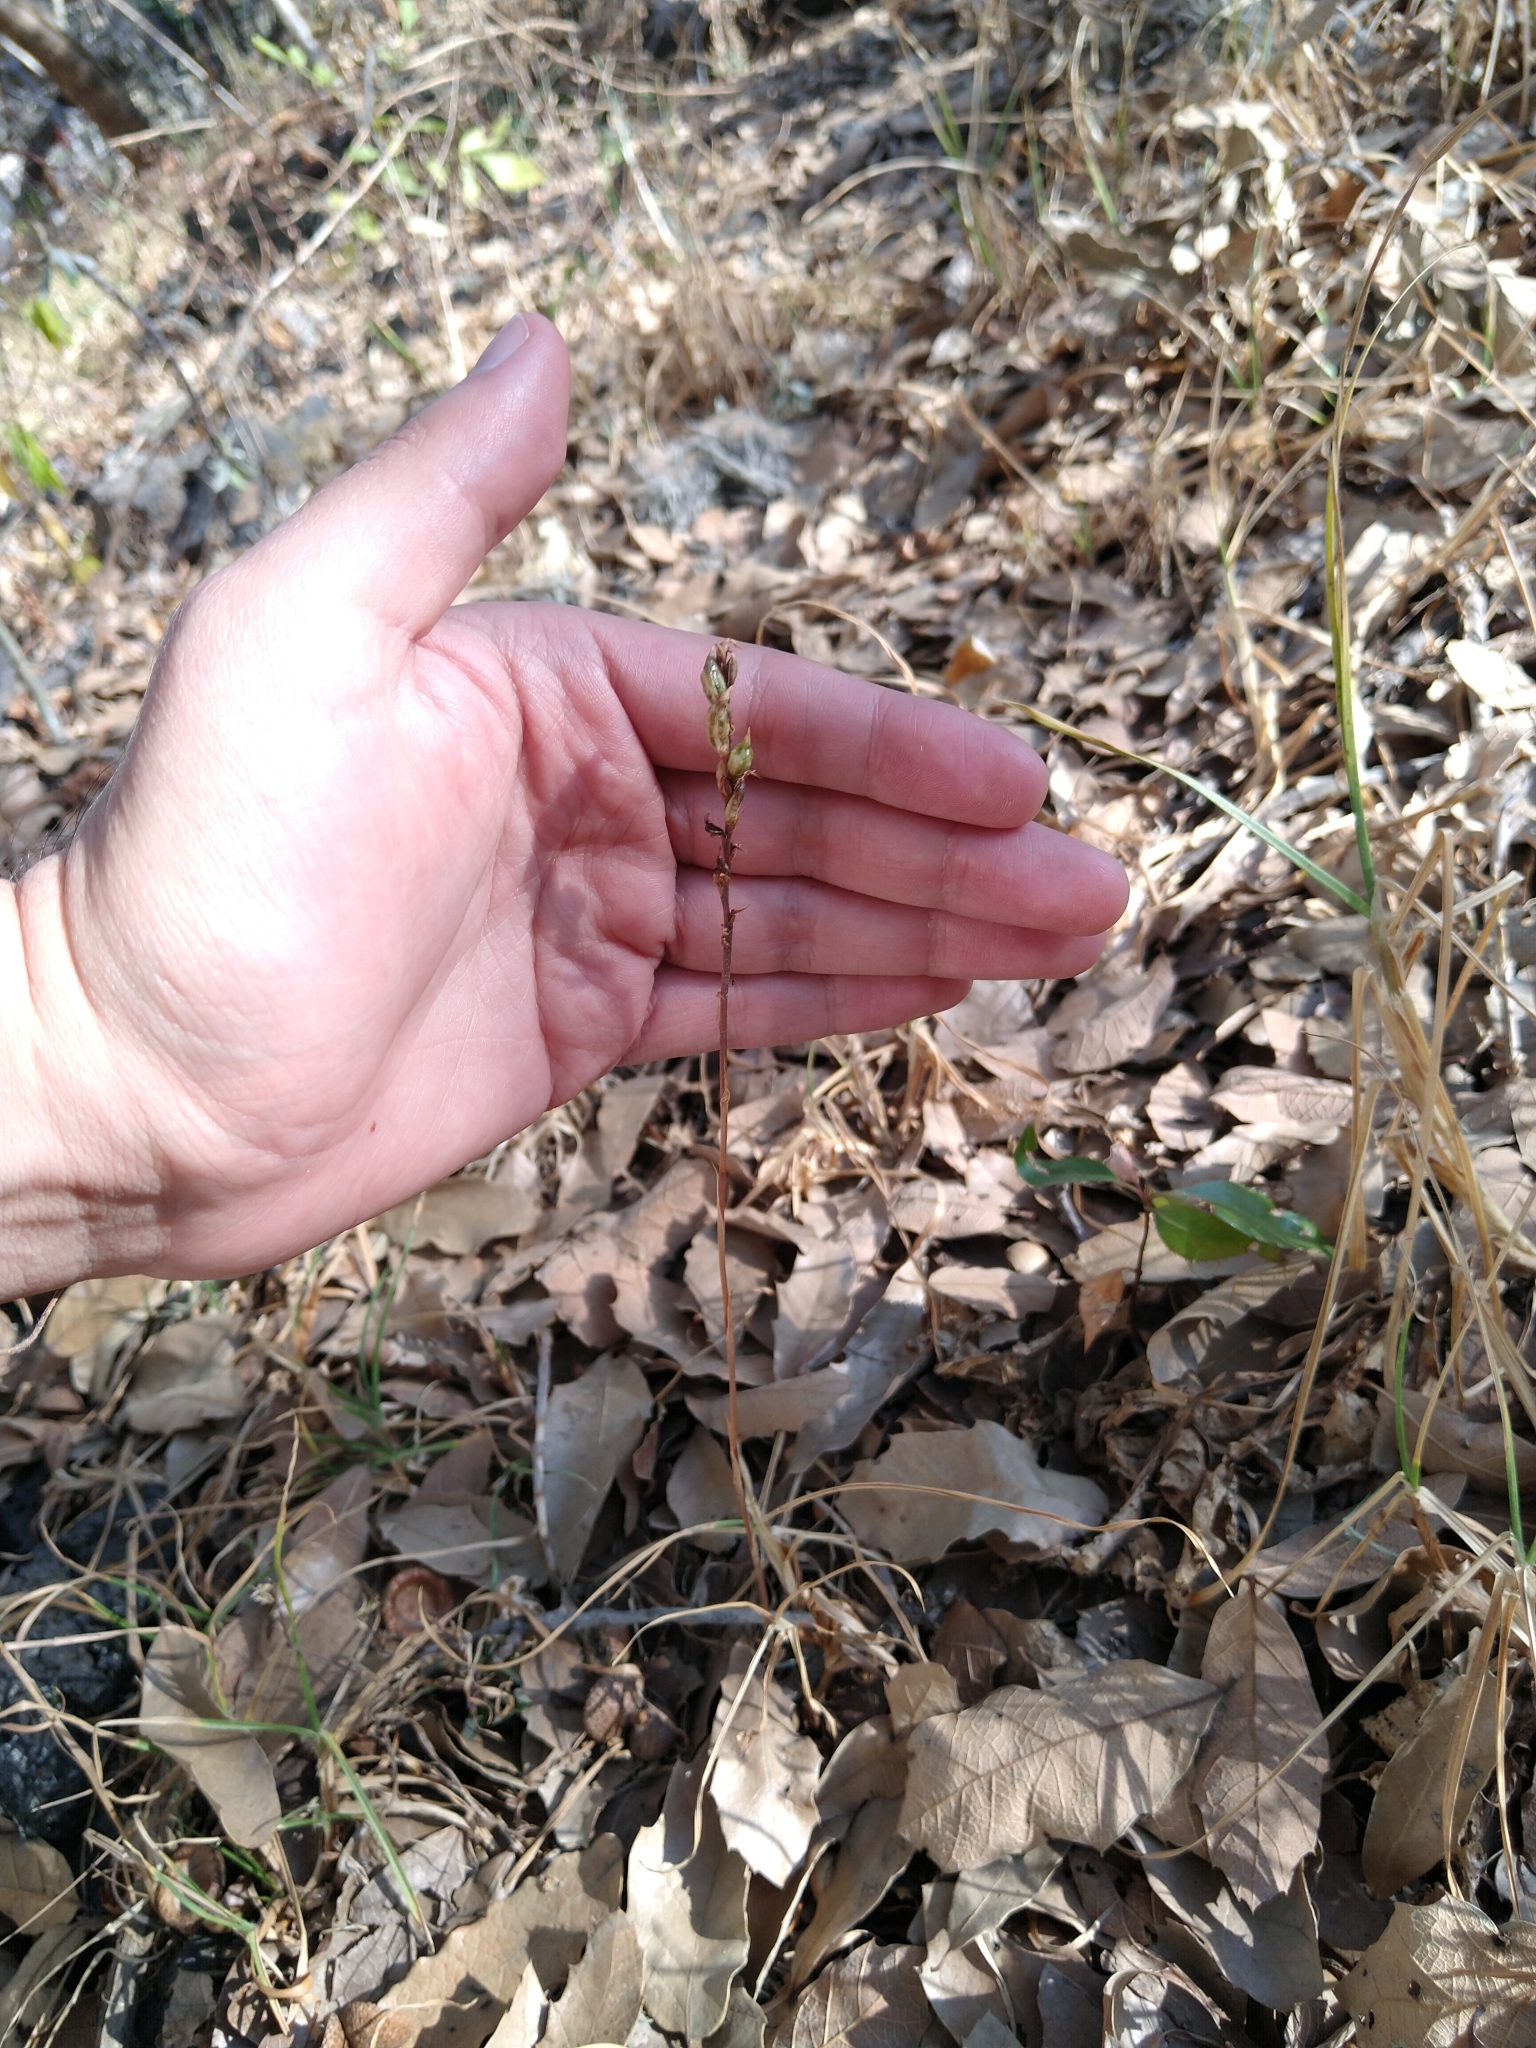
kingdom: Plantae
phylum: Tracheophyta
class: Liliopsida
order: Asparagales
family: Orchidaceae
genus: Microthelys
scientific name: Microthelys minutiflora
